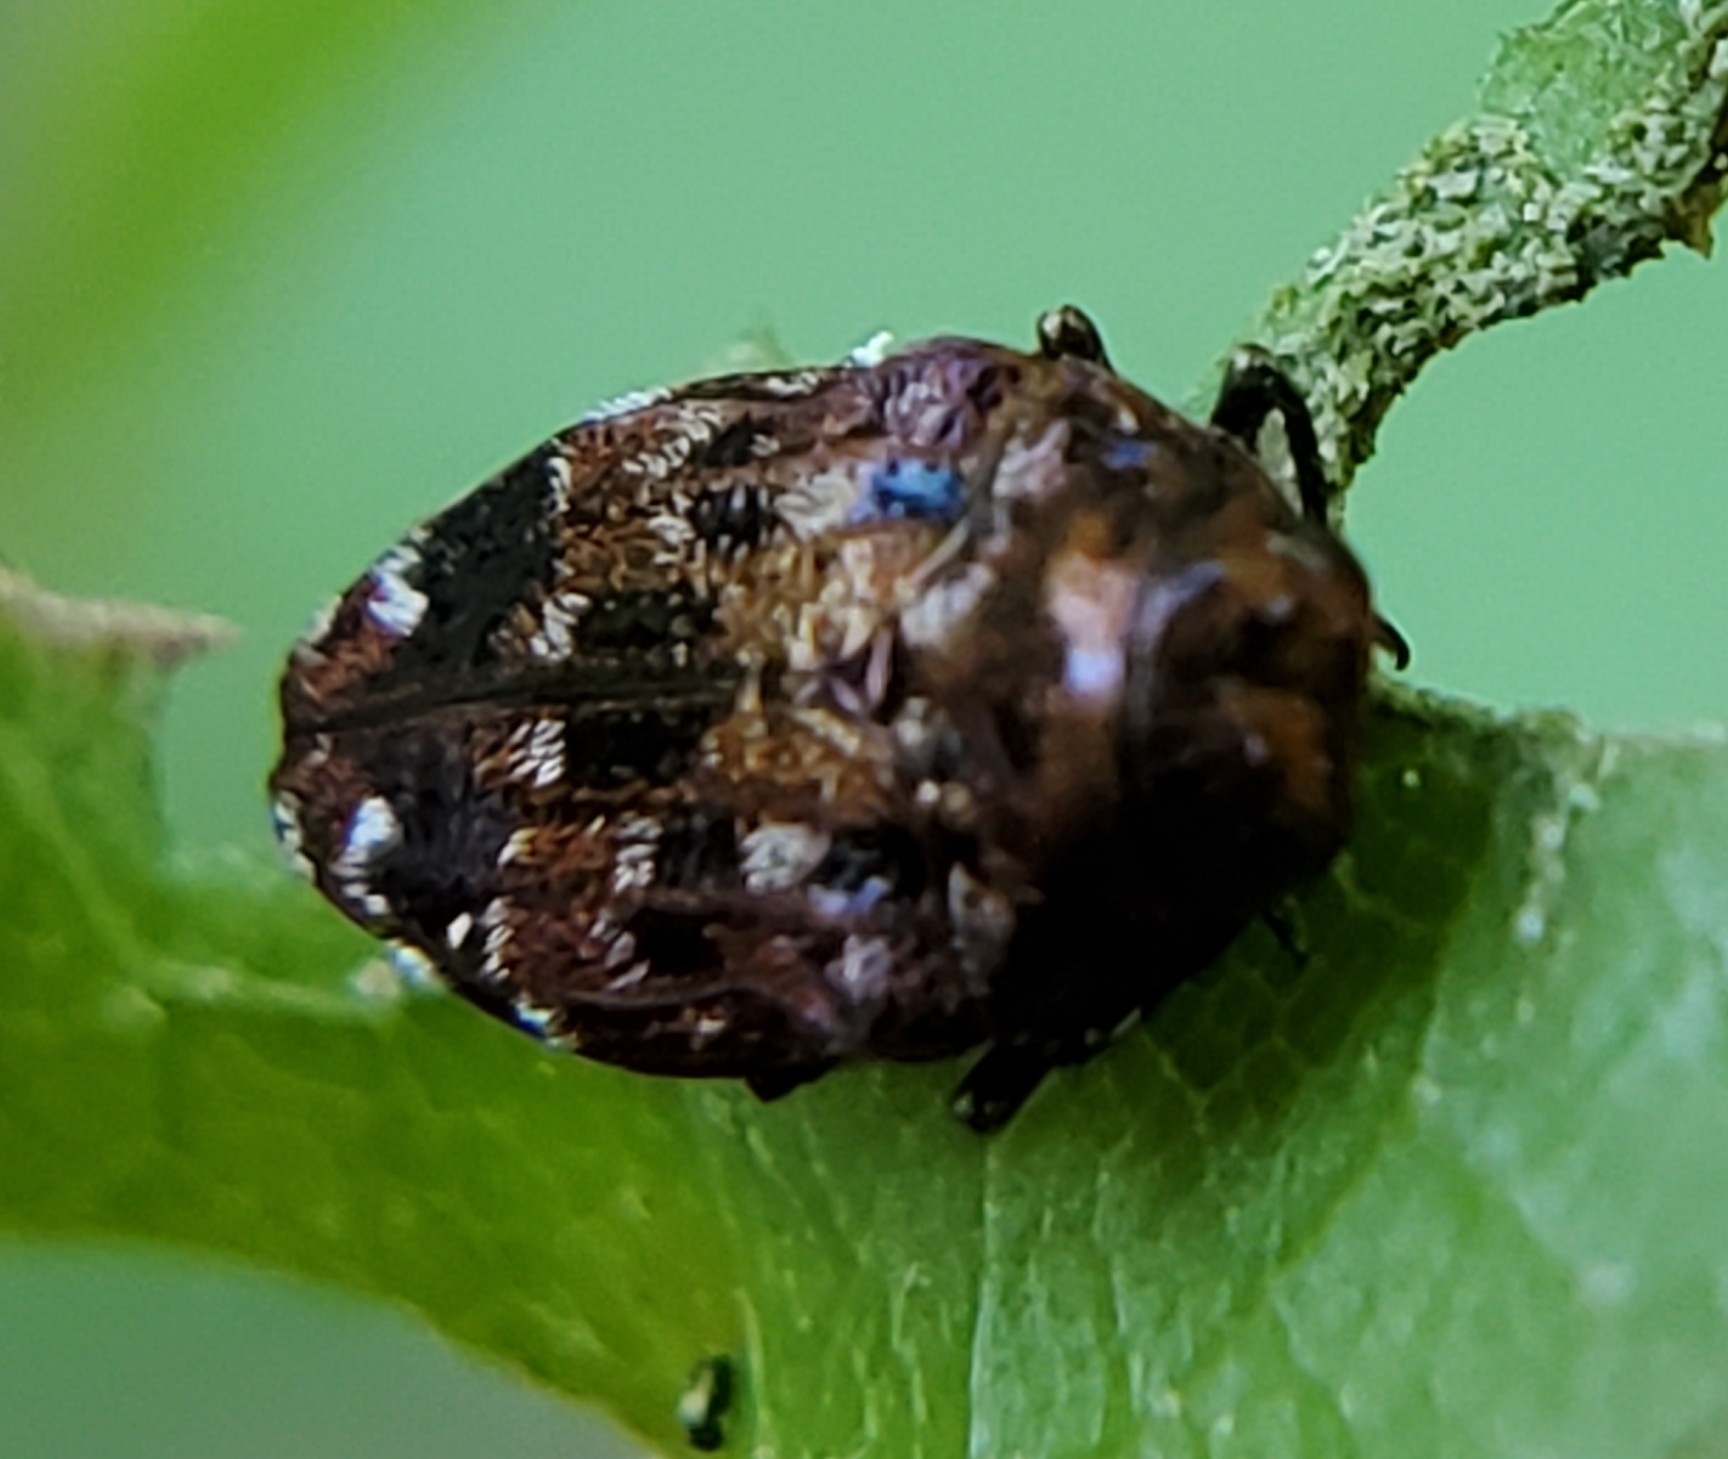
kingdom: Animalia
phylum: Arthropoda
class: Insecta
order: Coleoptera
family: Buprestidae
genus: Brachys
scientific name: Brachys ovatus
